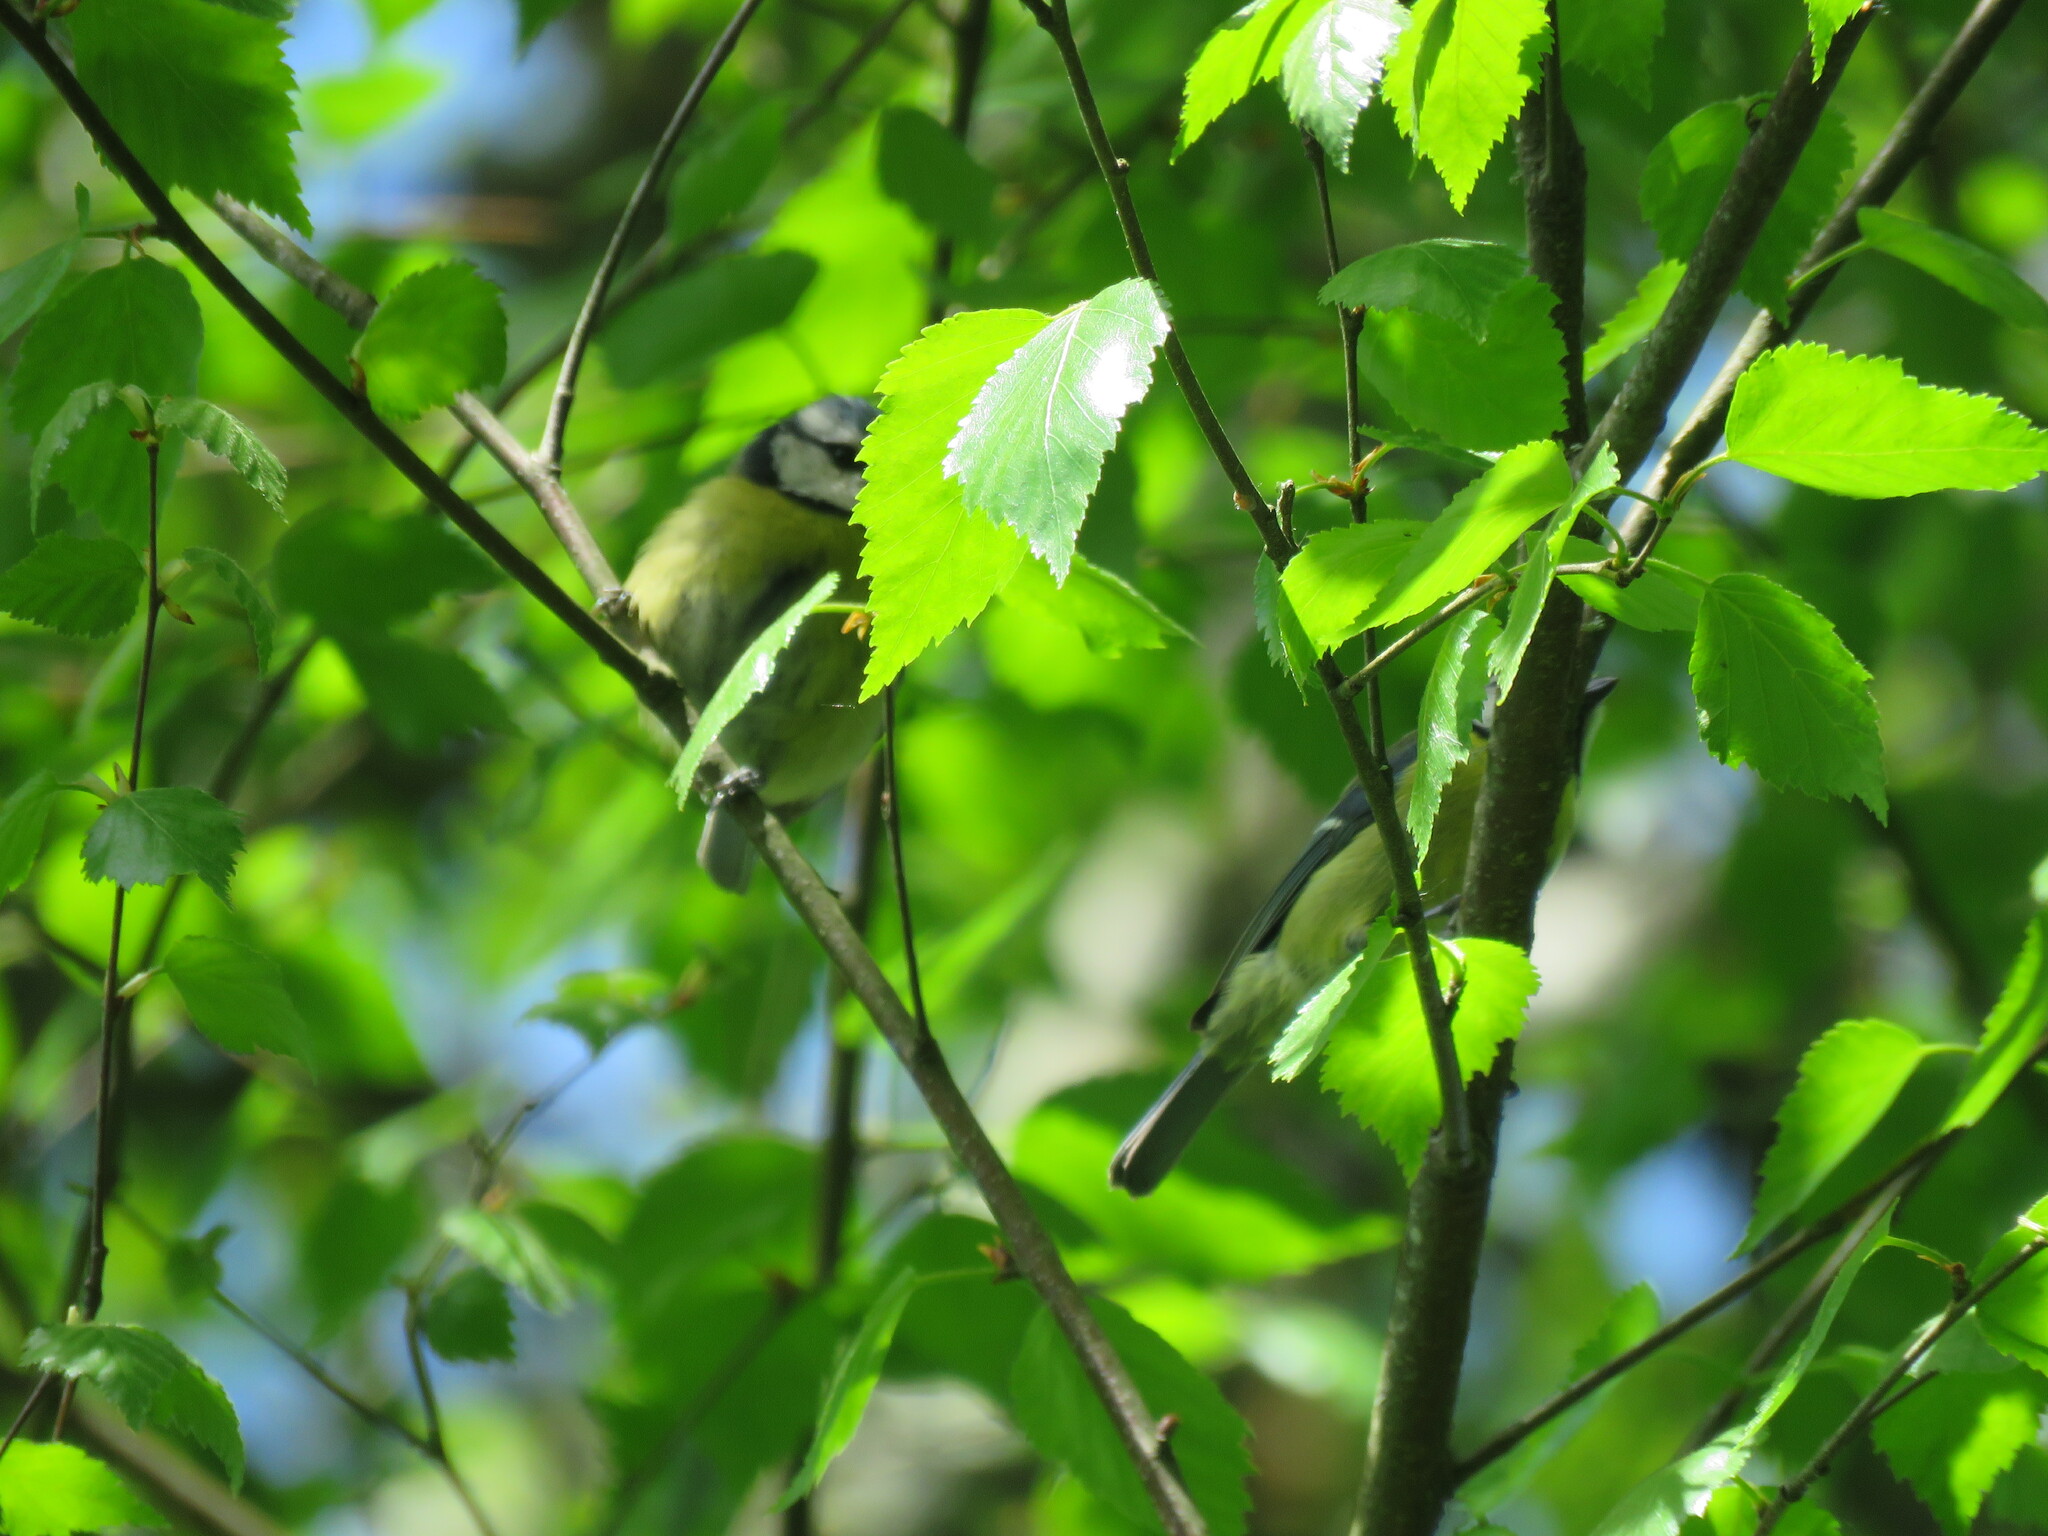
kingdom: Animalia
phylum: Chordata
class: Aves
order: Passeriformes
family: Paridae
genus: Cyanistes
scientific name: Cyanistes caeruleus
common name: Eurasian blue tit
